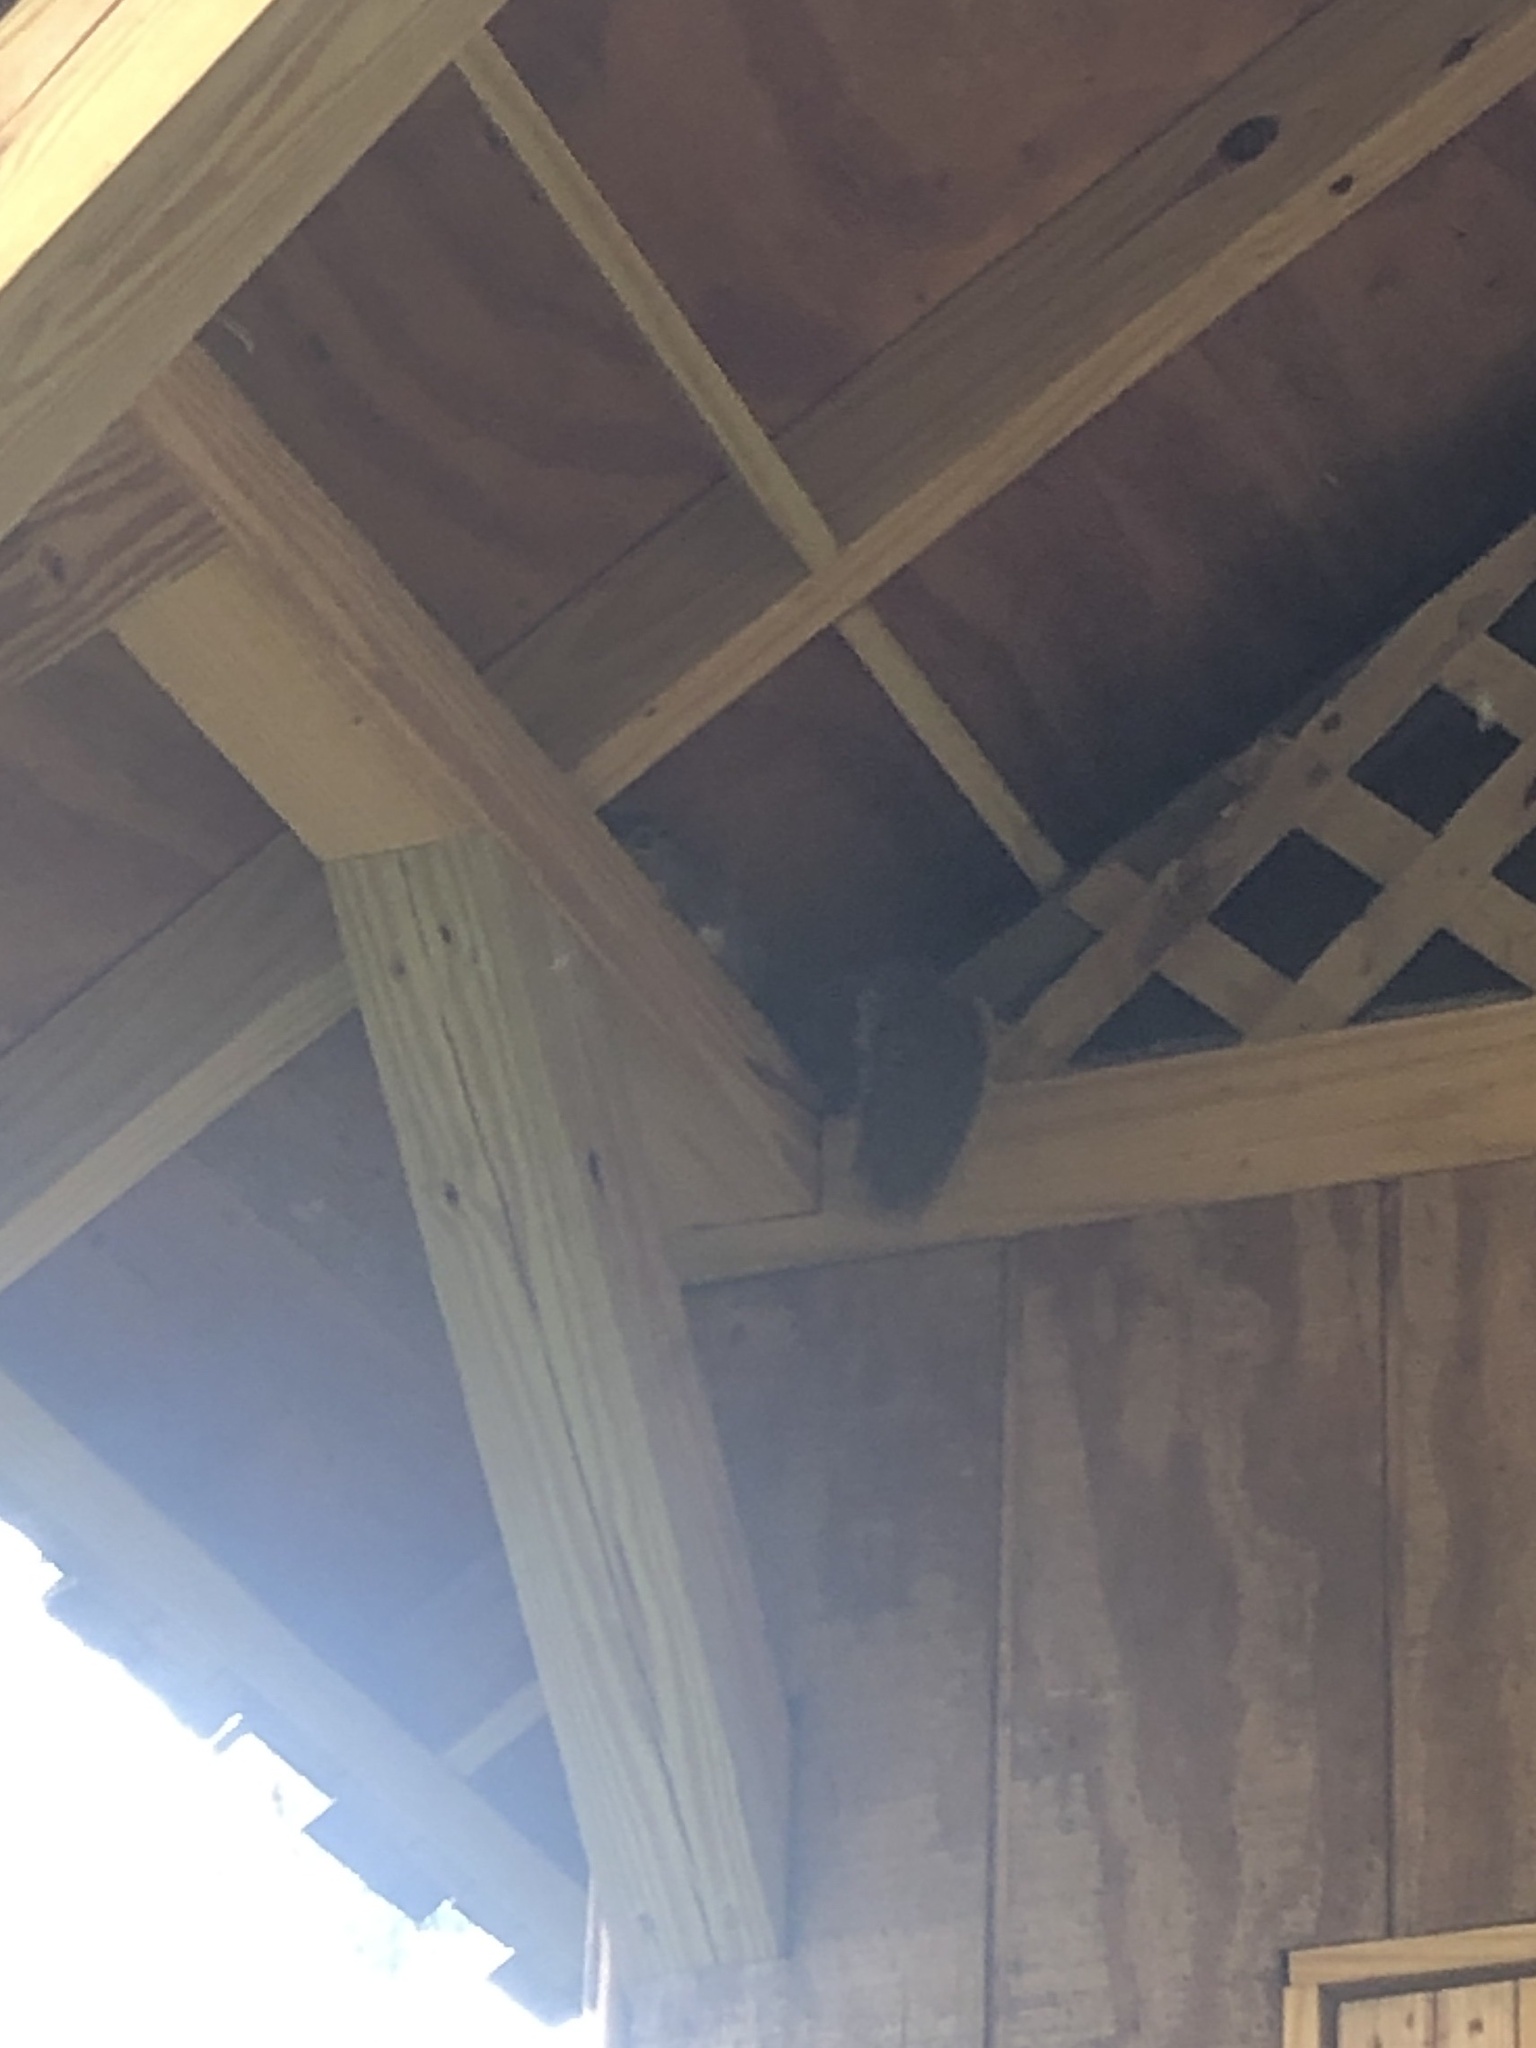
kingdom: Animalia
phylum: Chordata
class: Mammalia
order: Rodentia
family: Sciuridae
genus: Sciurus
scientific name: Sciurus carolinensis
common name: Eastern gray squirrel
